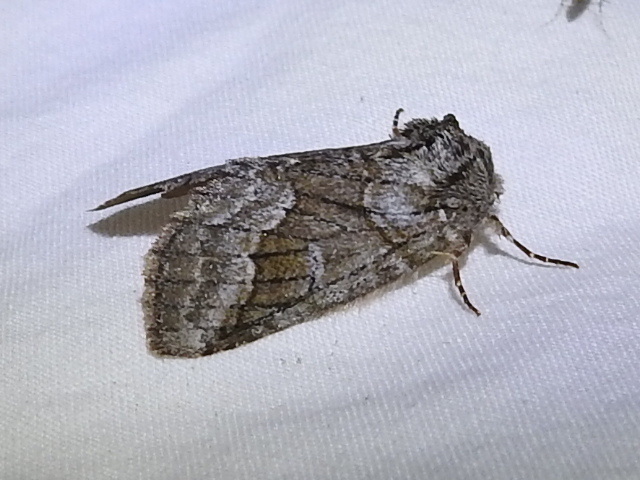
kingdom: Animalia
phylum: Arthropoda
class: Insecta
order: Lepidoptera
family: Notodontidae
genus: Lochmaeus
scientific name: Lochmaeus bilineata
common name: Double-lined prominent
